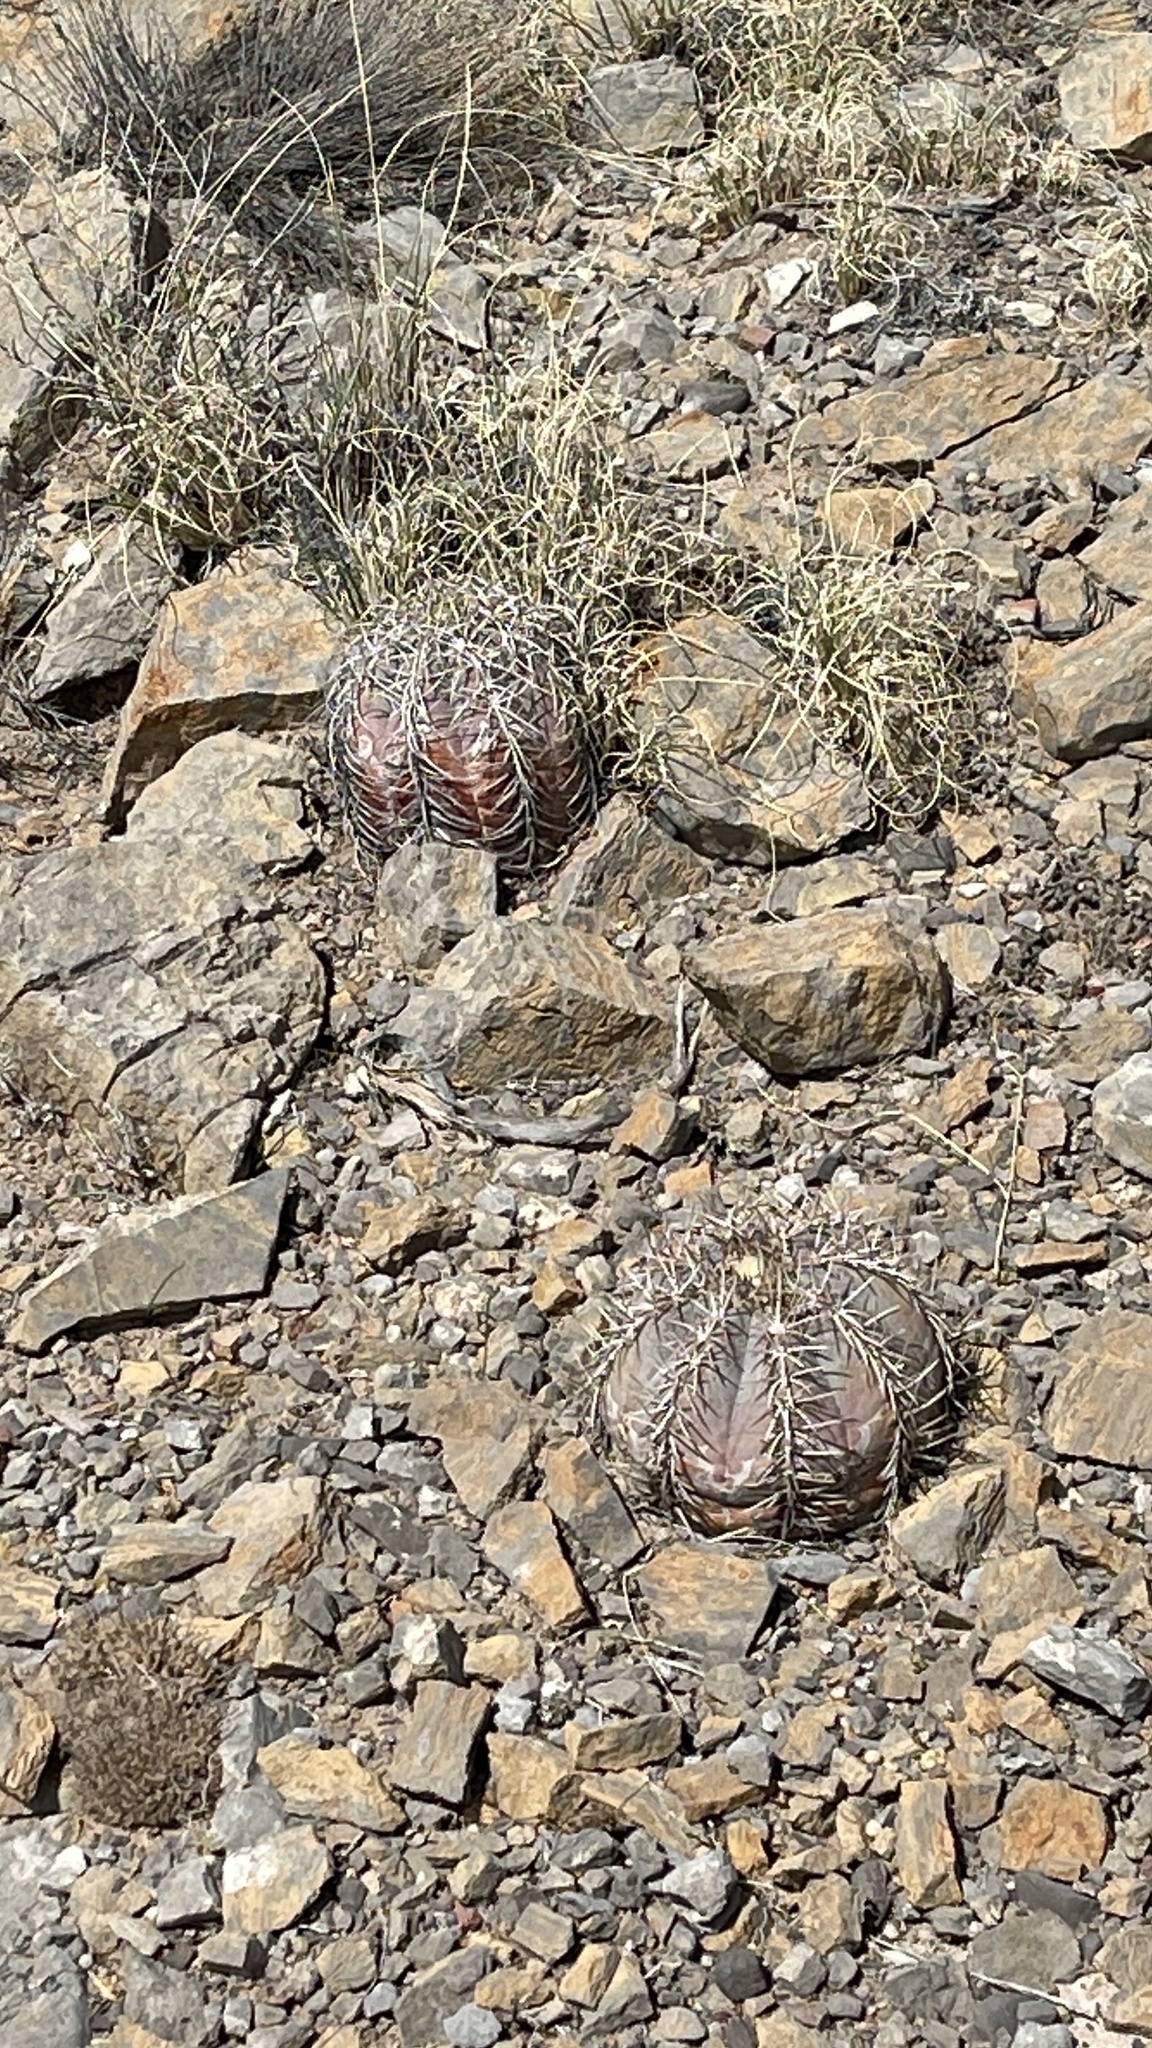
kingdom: Plantae
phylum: Tracheophyta
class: Magnoliopsida
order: Caryophyllales
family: Cactaceae
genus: Echinocactus
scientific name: Echinocactus horizonthalonius
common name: Devilshead
